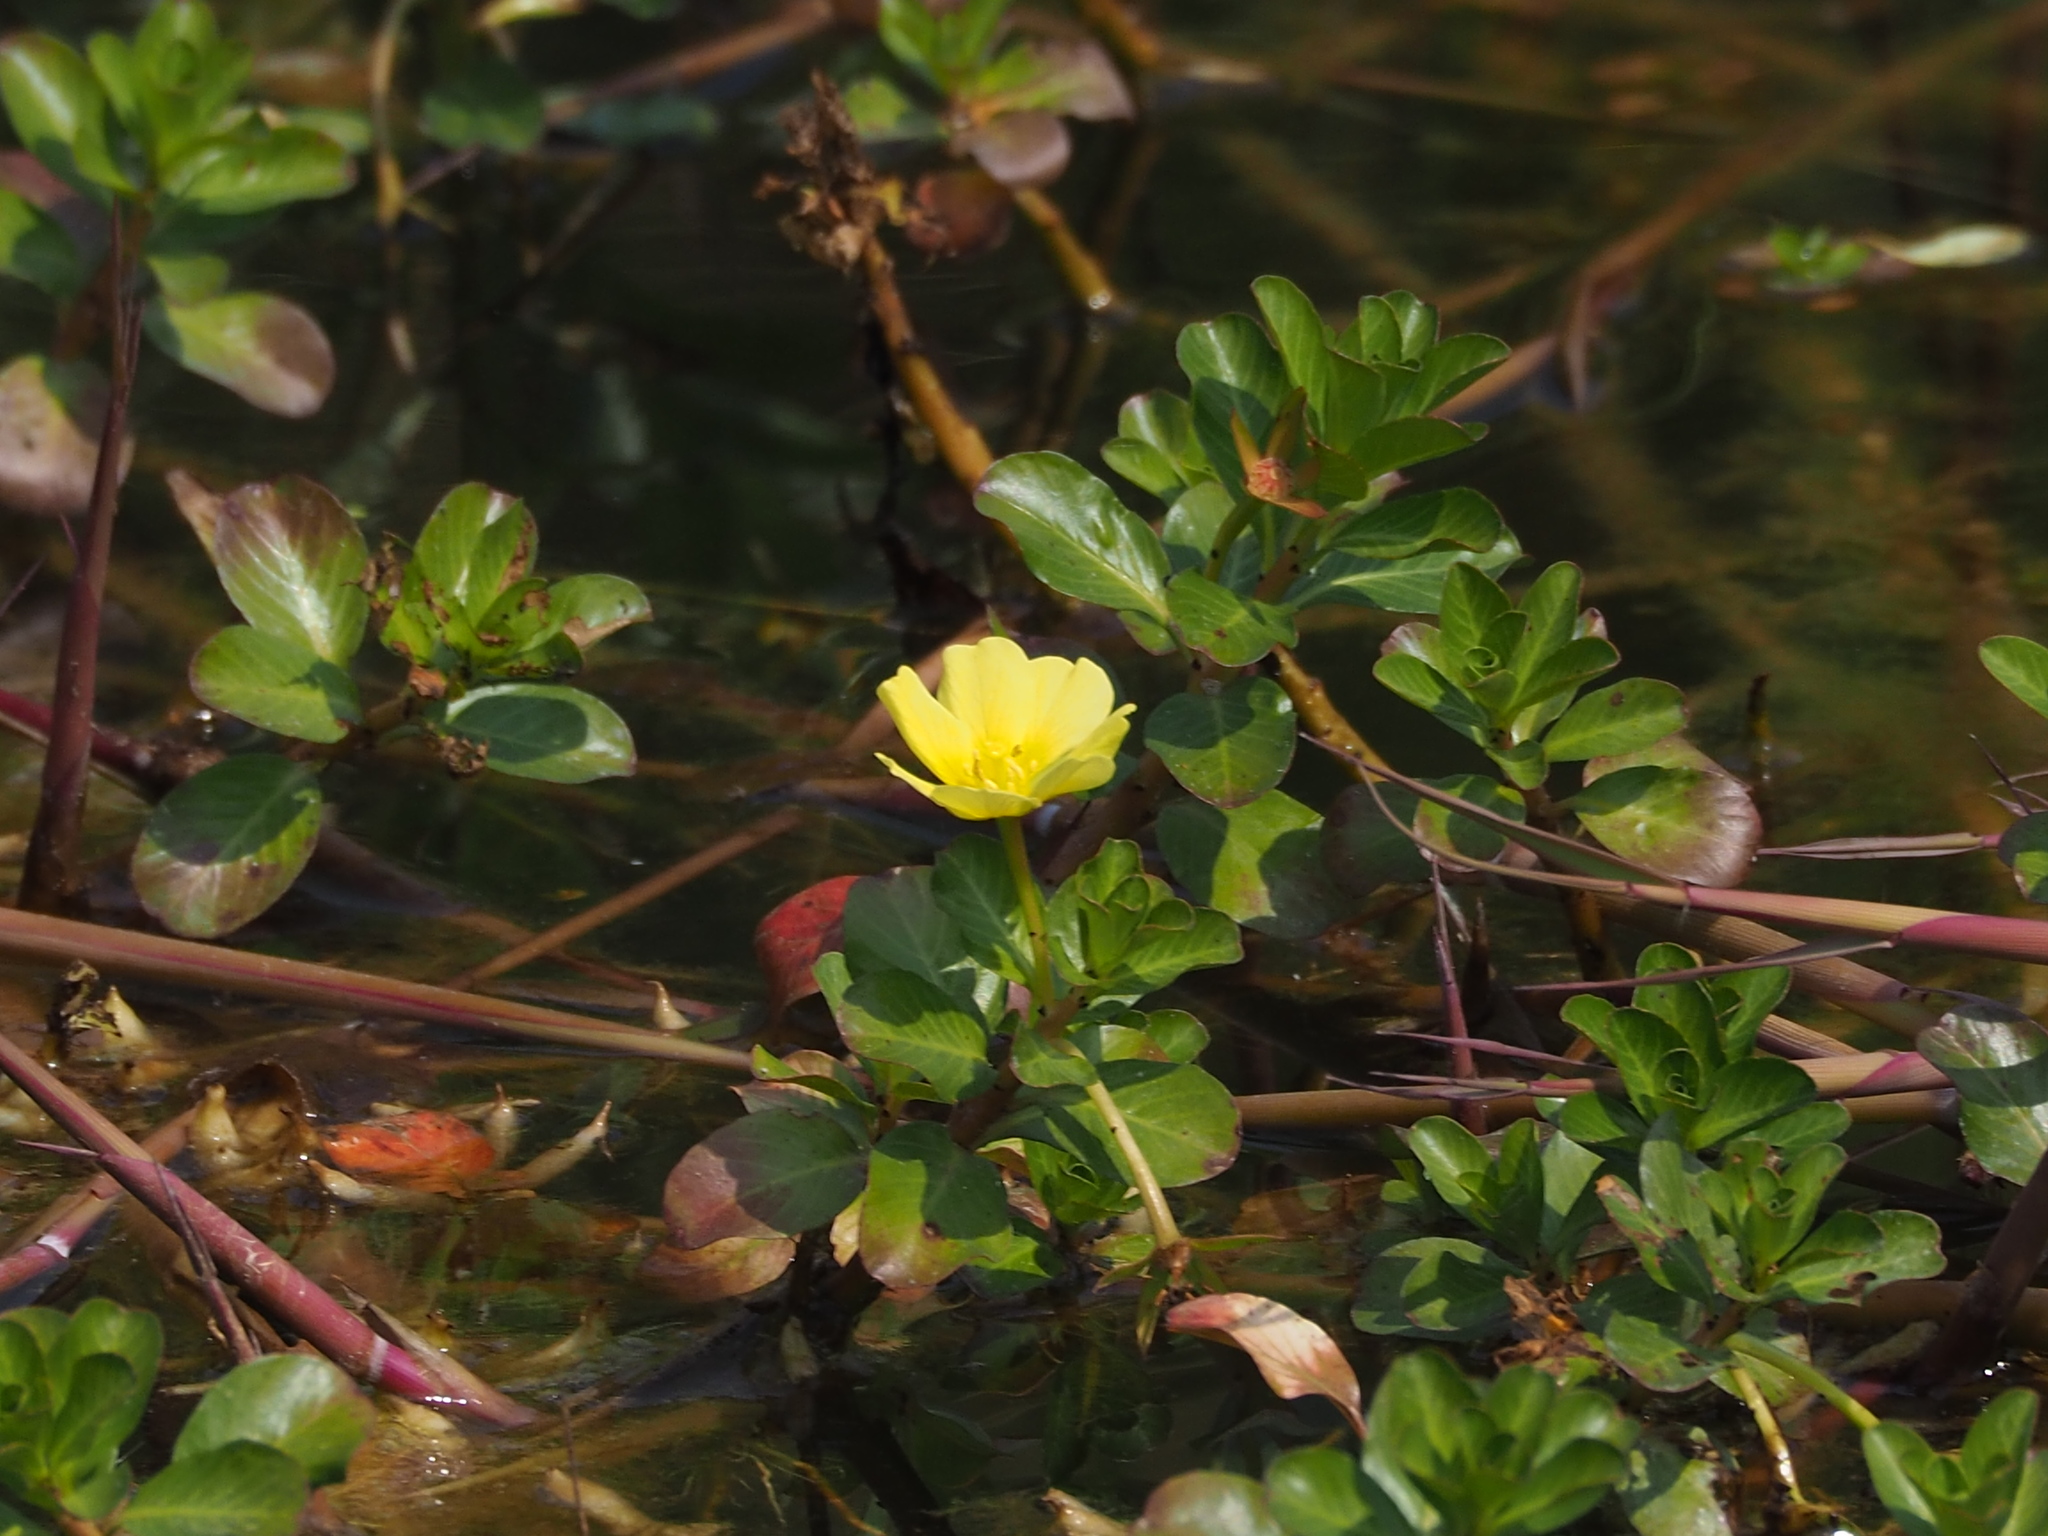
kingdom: Plantae
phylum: Tracheophyta
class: Magnoliopsida
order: Myrtales
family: Onagraceae
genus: Ludwigia
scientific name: Ludwigia taiwanensis
